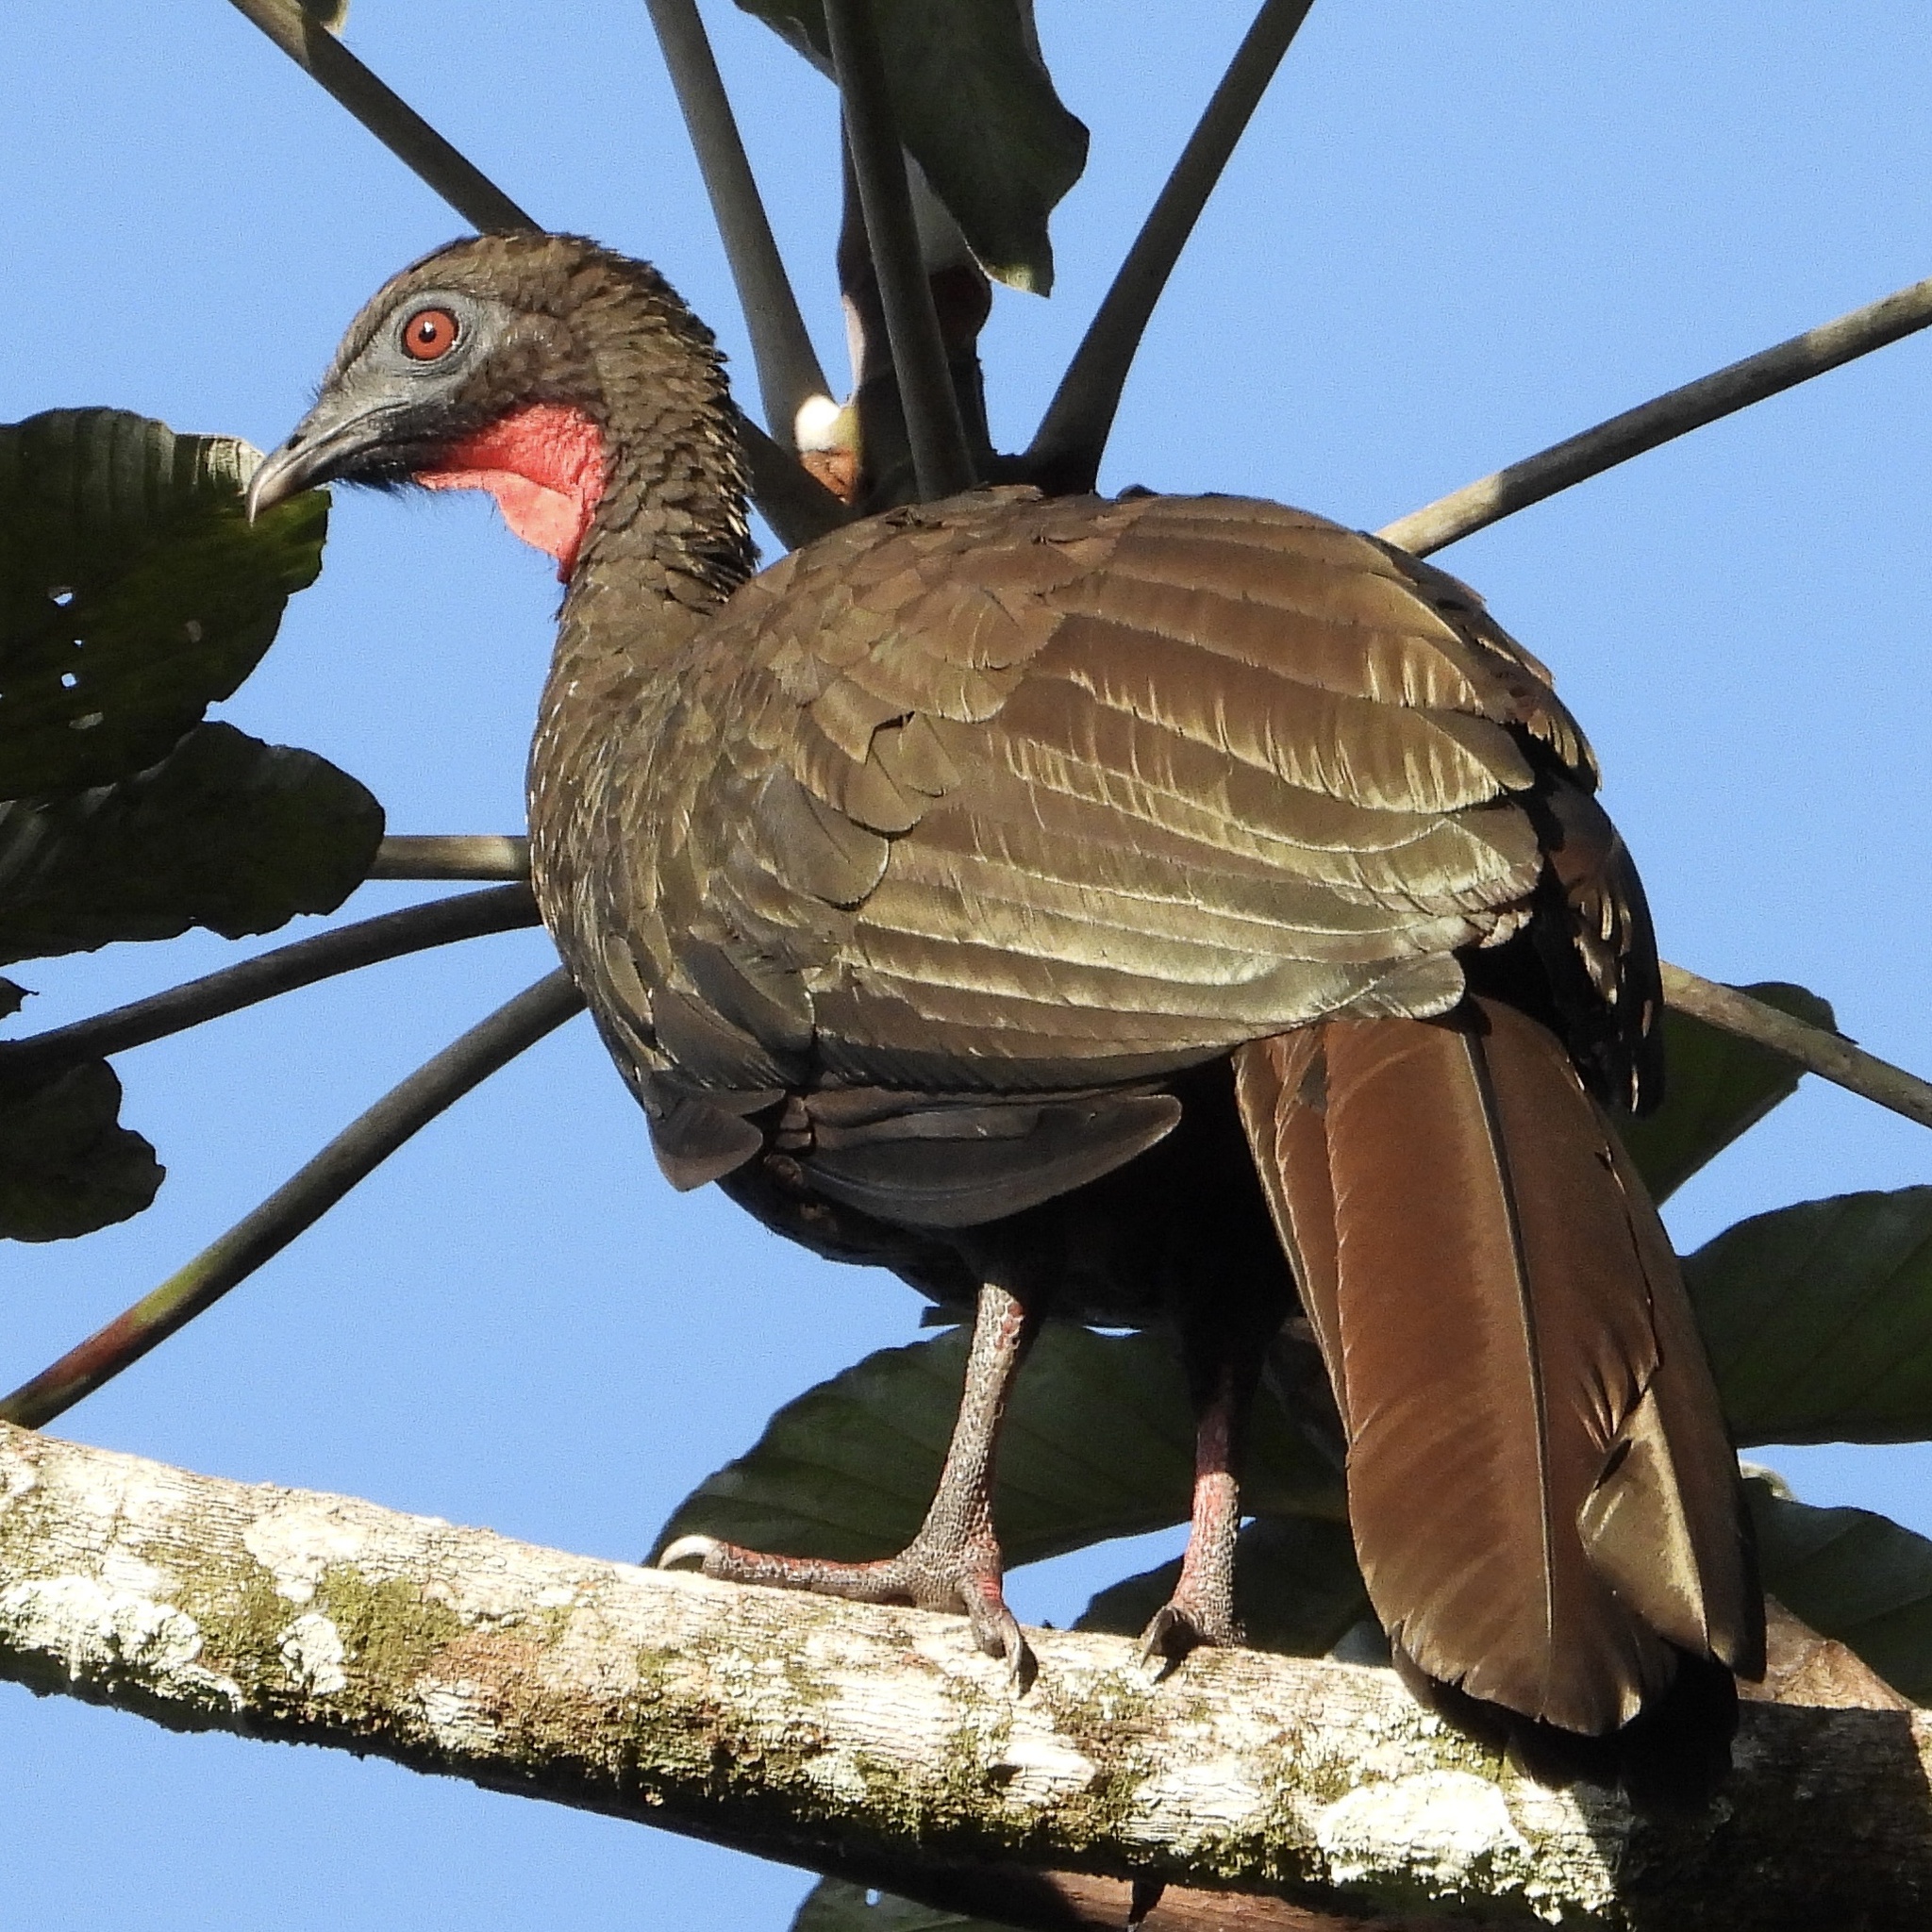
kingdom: Animalia
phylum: Chordata
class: Aves
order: Galliformes
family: Cracidae
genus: Penelope
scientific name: Penelope purpurascens
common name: Crested guan
